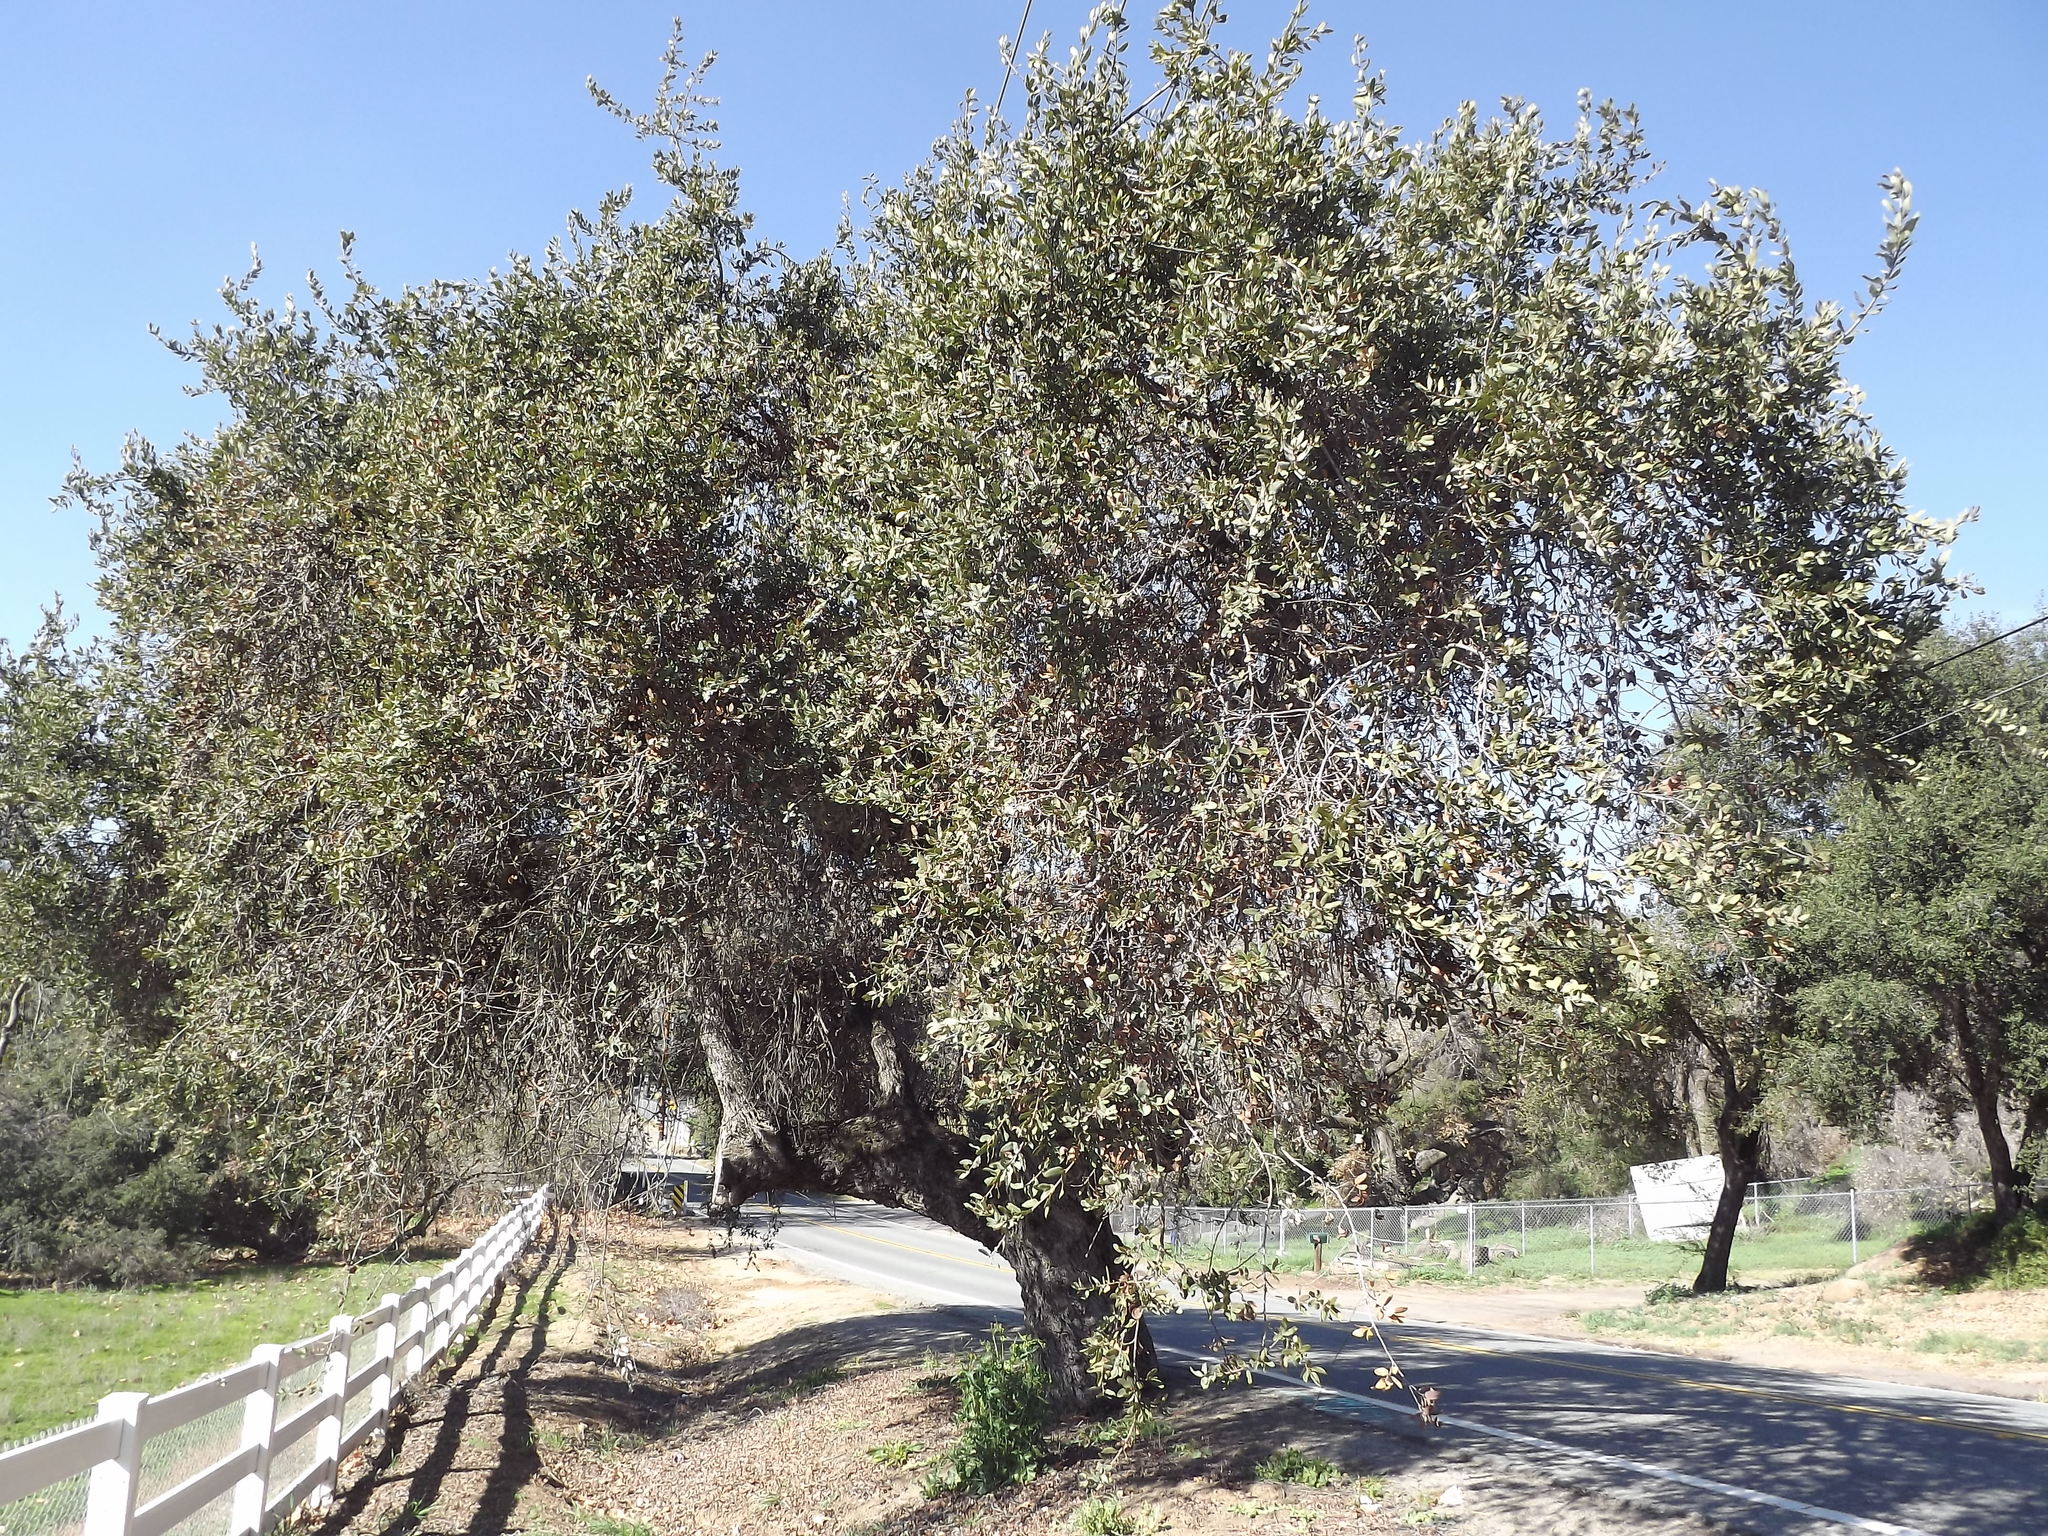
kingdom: Plantae
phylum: Tracheophyta
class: Magnoliopsida
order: Fagales
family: Fagaceae
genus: Quercus
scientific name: Quercus engelmannii
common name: Engelmann oak
